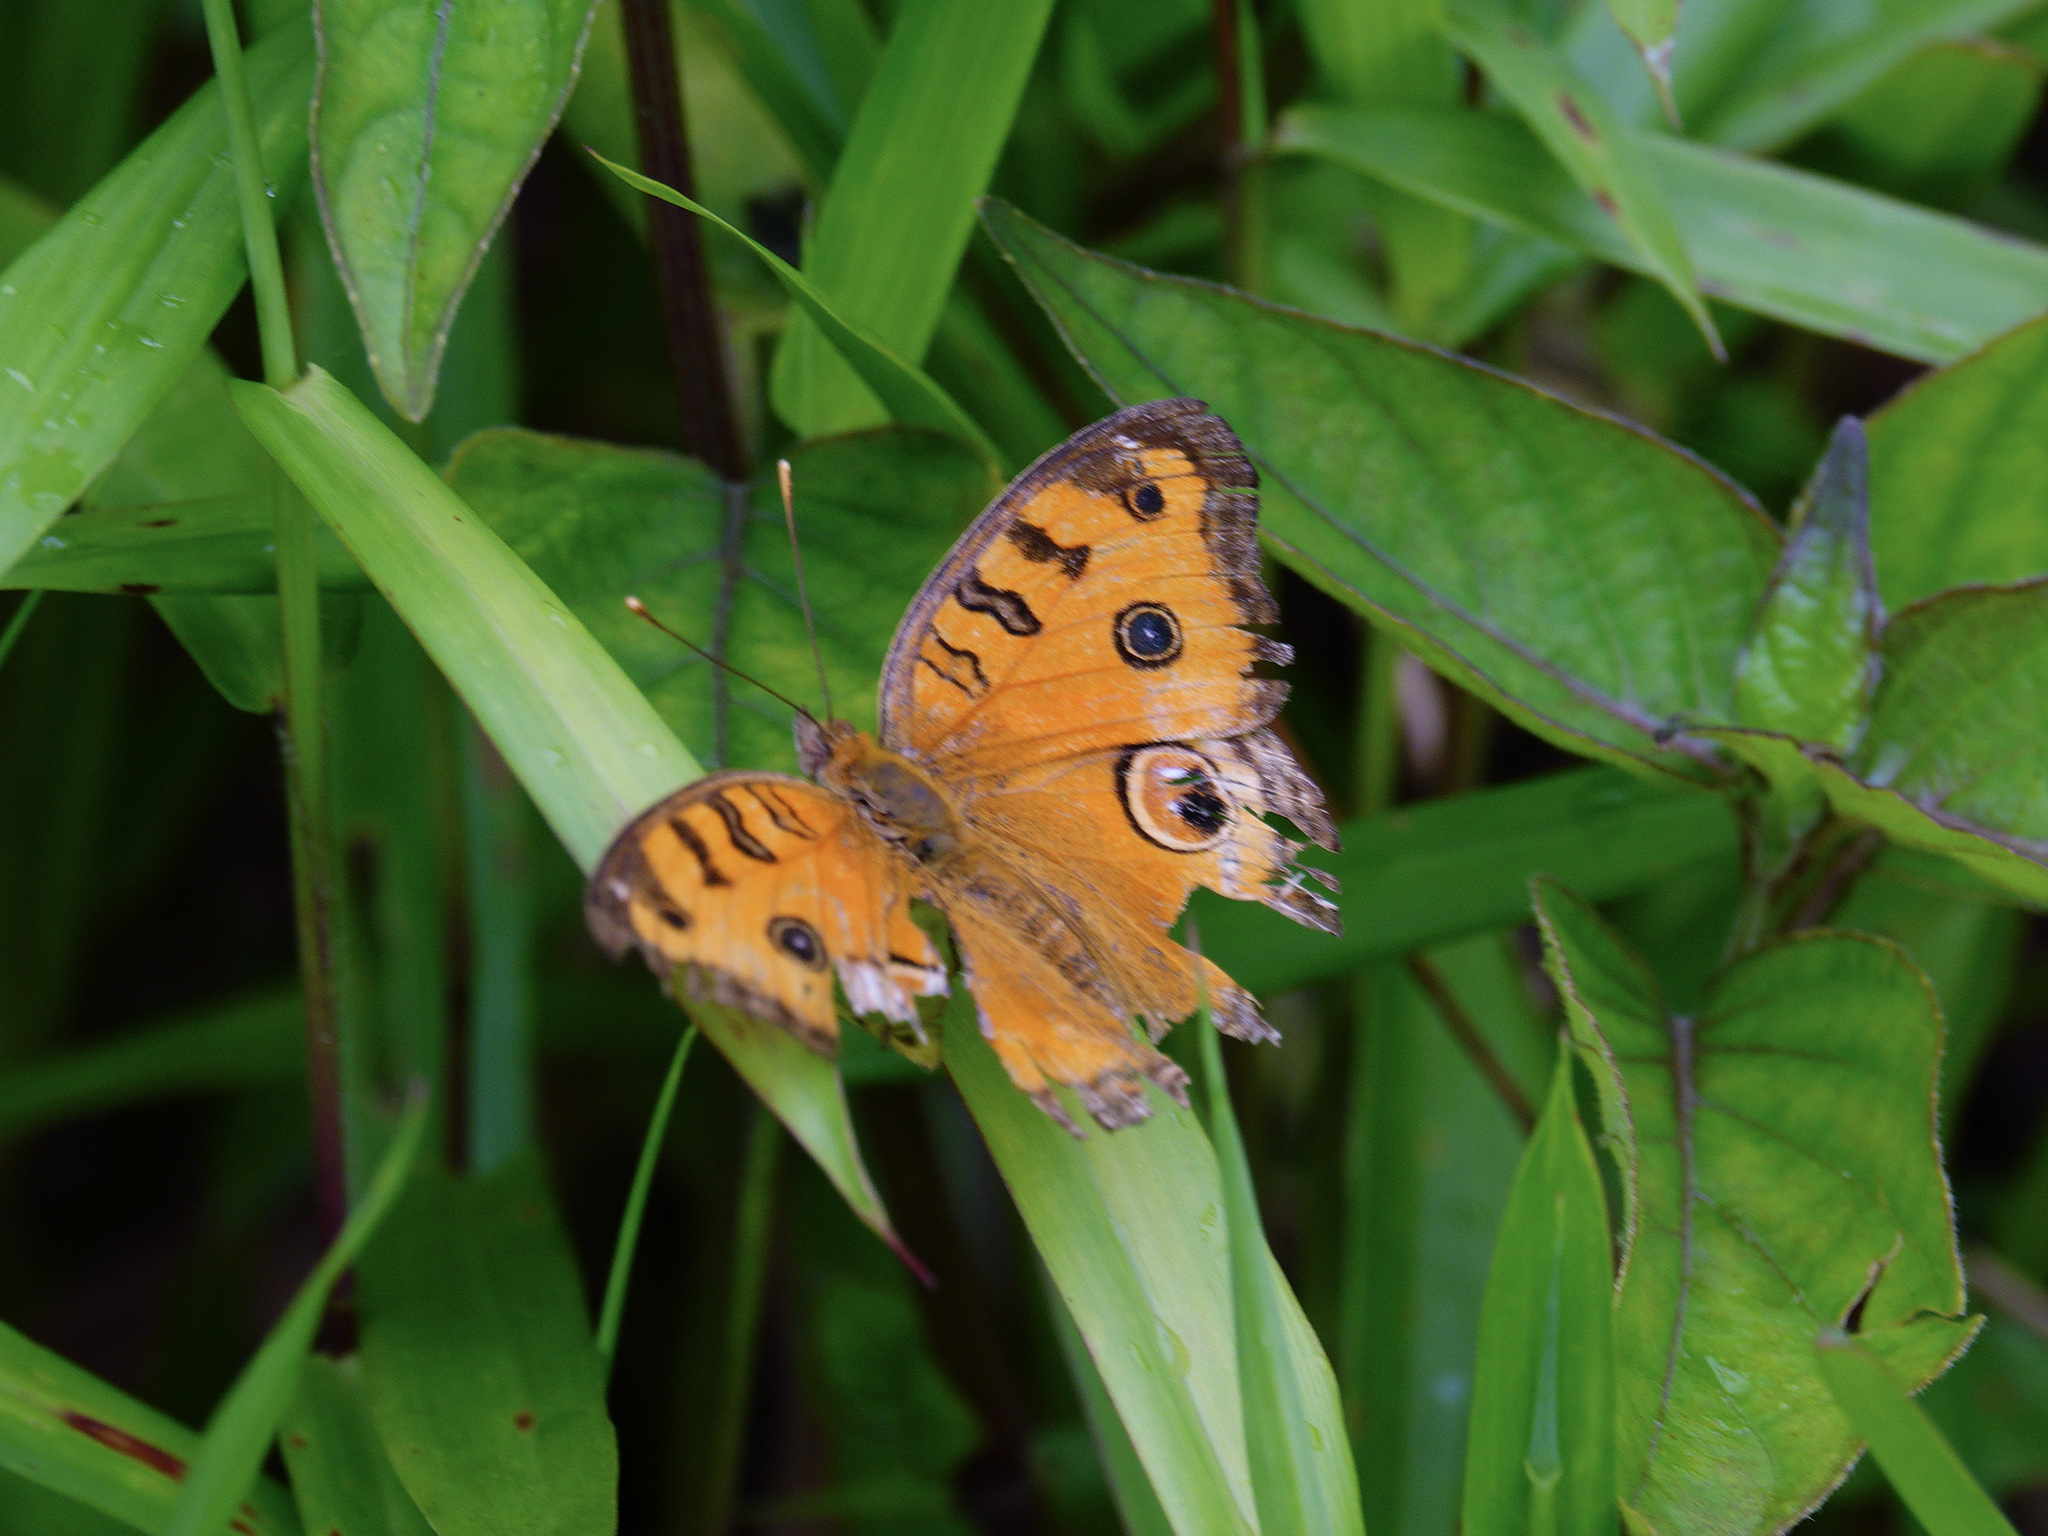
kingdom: Animalia
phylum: Arthropoda
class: Insecta
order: Lepidoptera
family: Nymphalidae
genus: Junonia
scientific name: Junonia almana
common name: Peacock pansy
